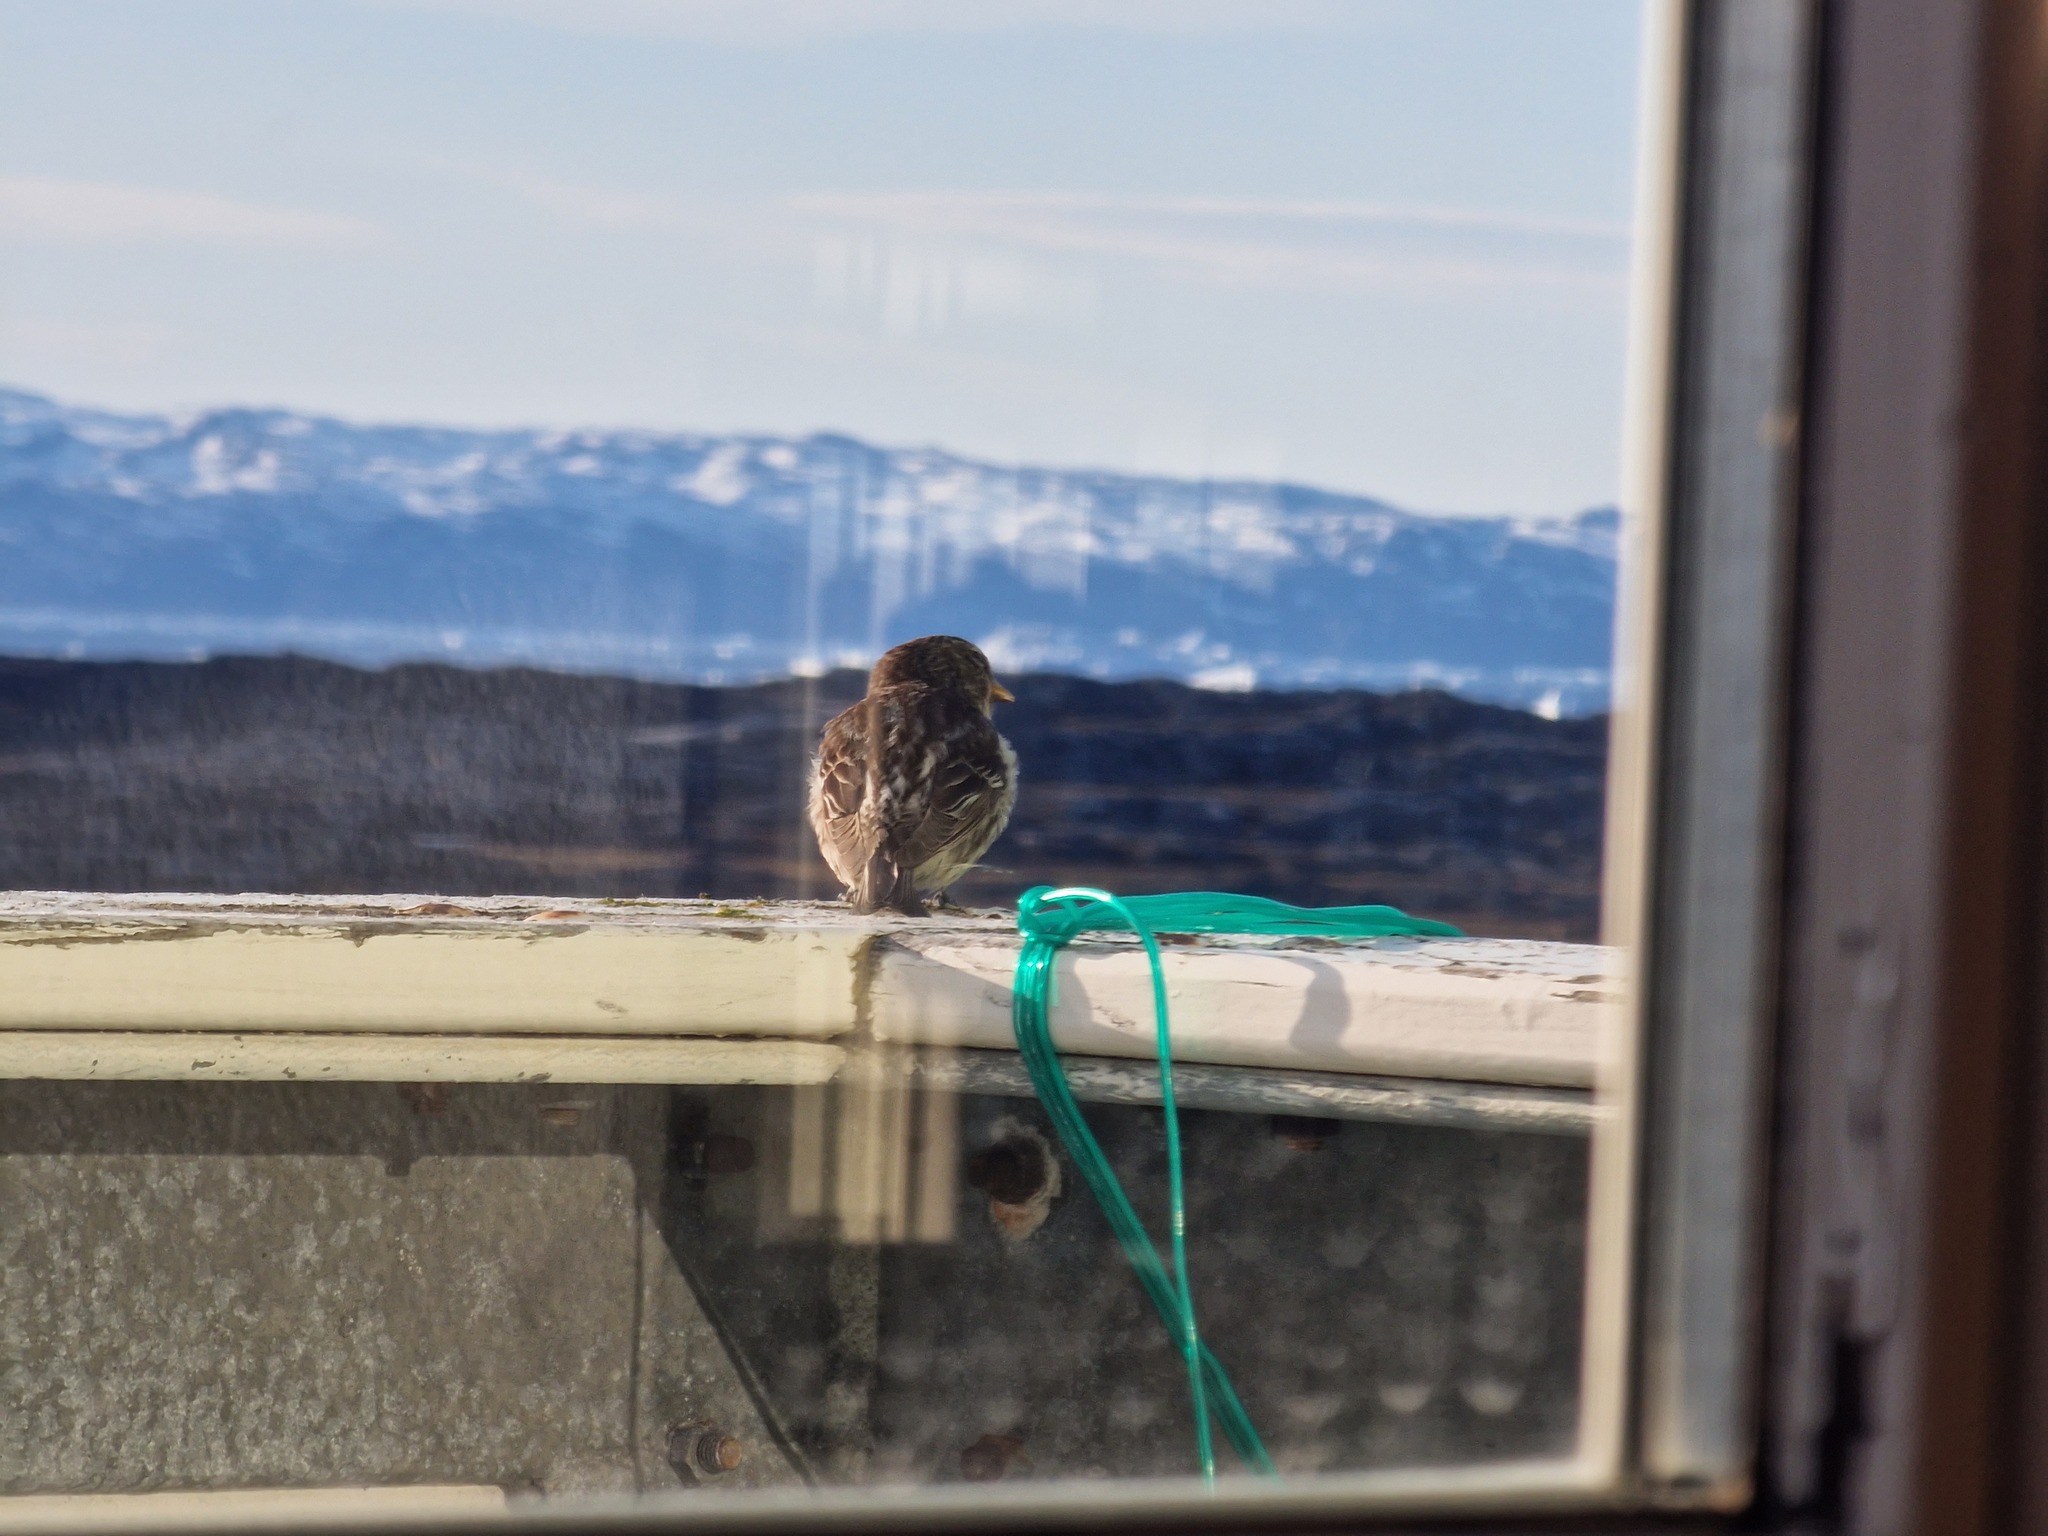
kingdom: Animalia
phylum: Chordata
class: Aves
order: Passeriformes
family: Fringillidae
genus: Acanthis
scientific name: Acanthis flammea
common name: Common redpoll
